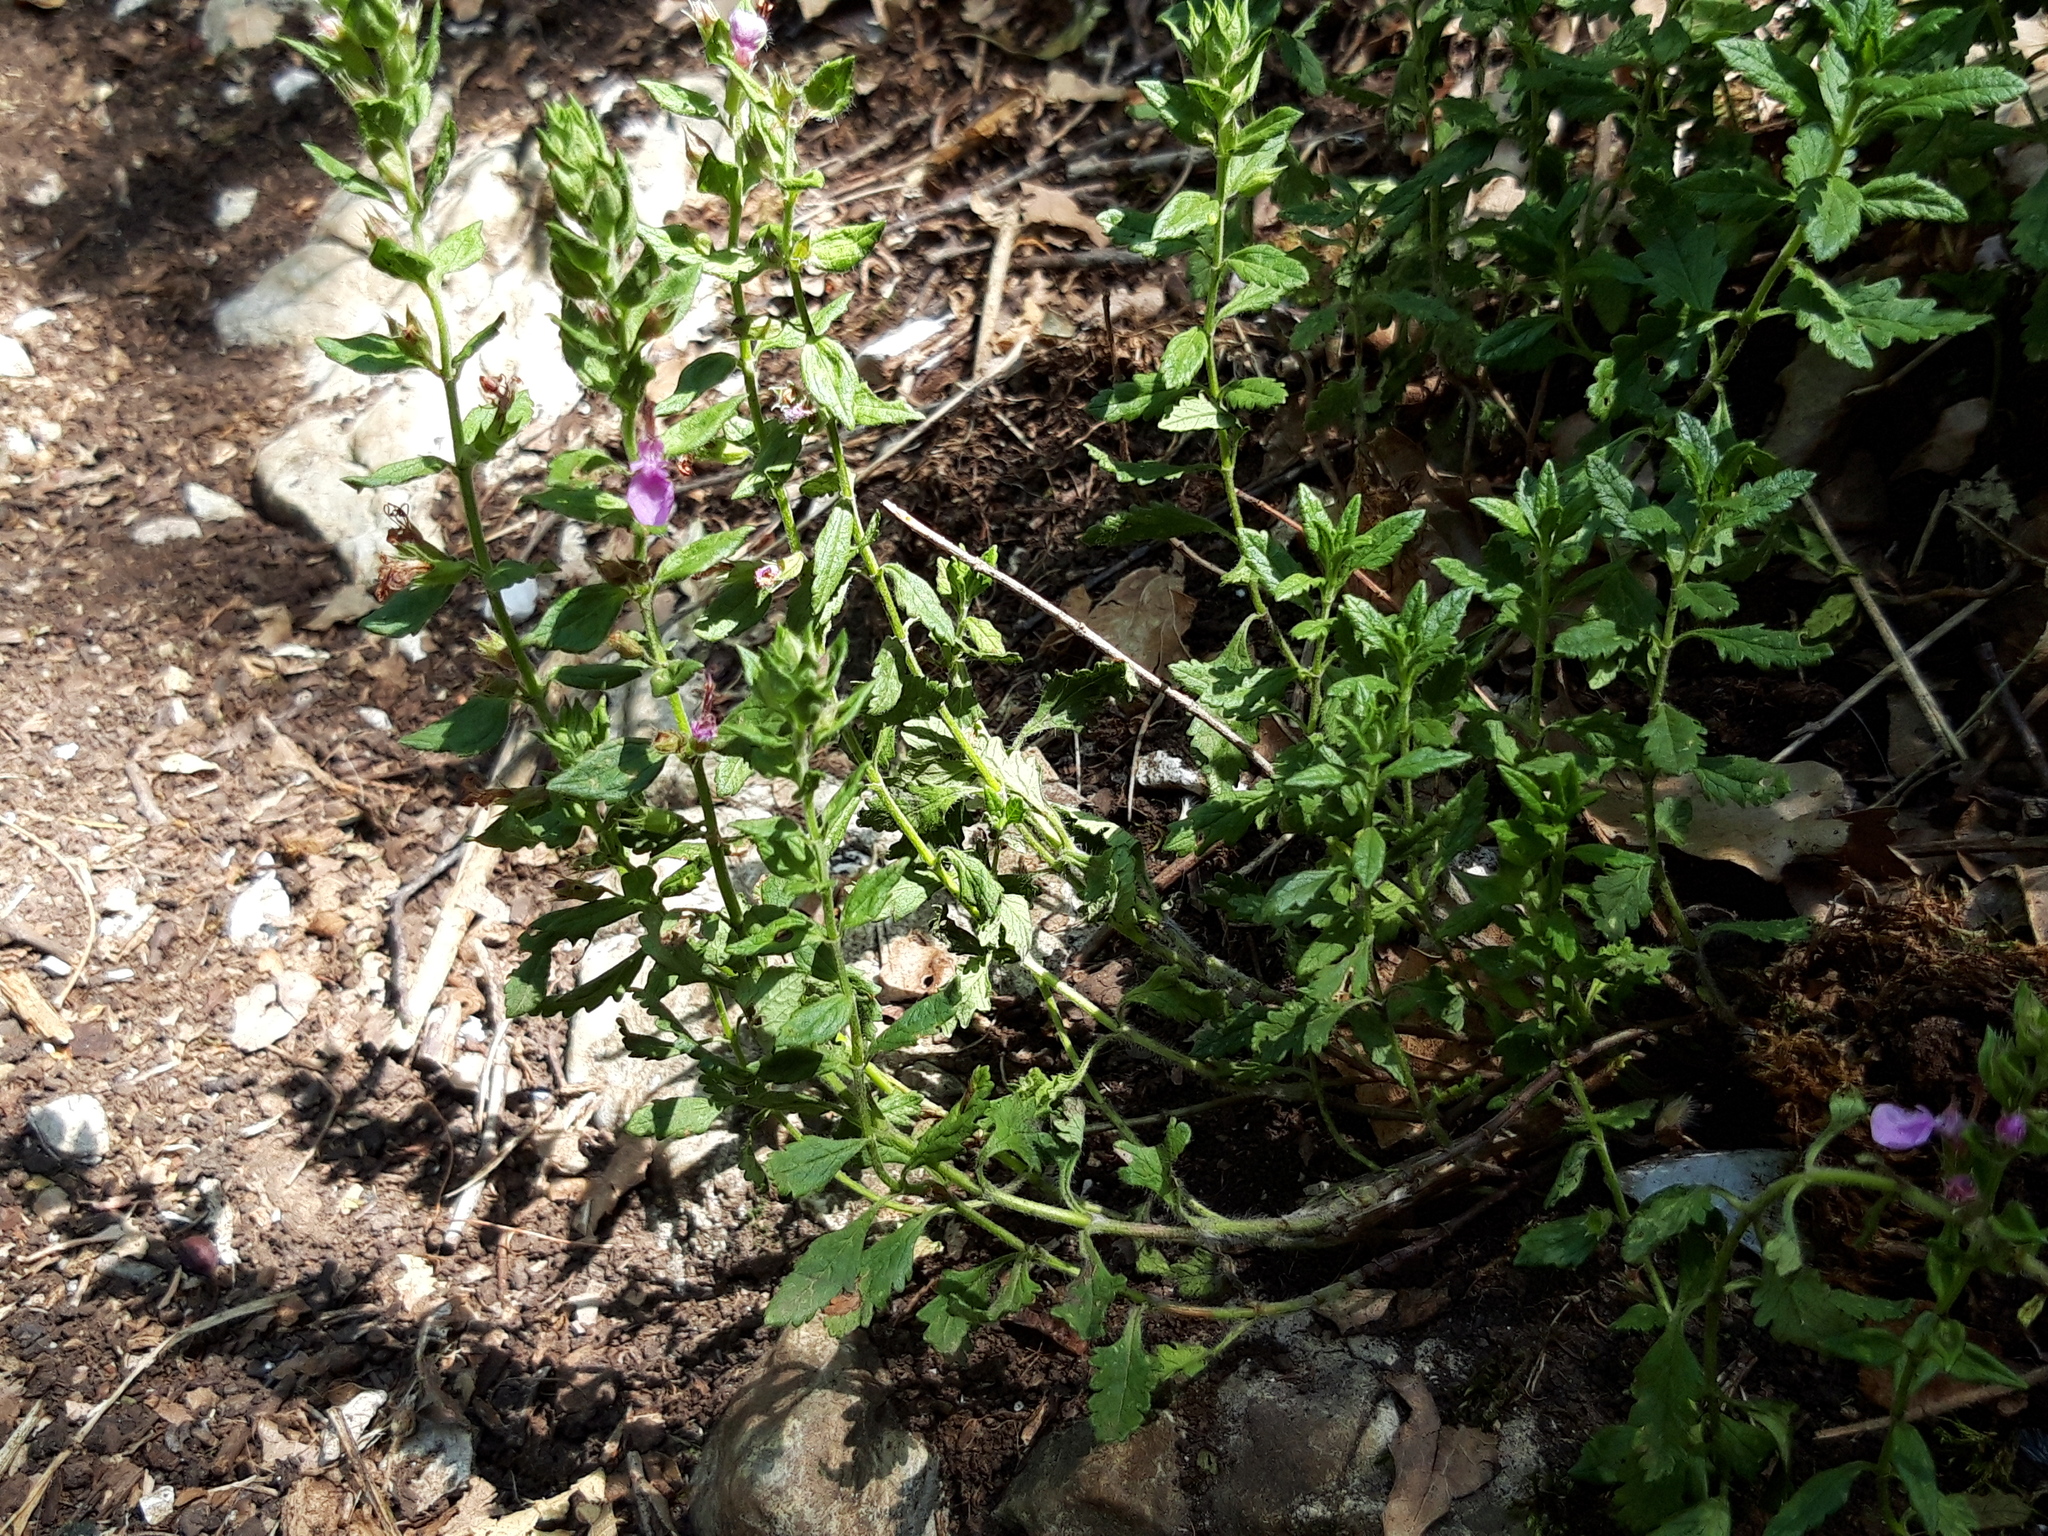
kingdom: Plantae
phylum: Tracheophyta
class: Magnoliopsida
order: Lamiales
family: Lamiaceae
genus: Teucrium
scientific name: Teucrium chamaedrys
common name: Wall germander
